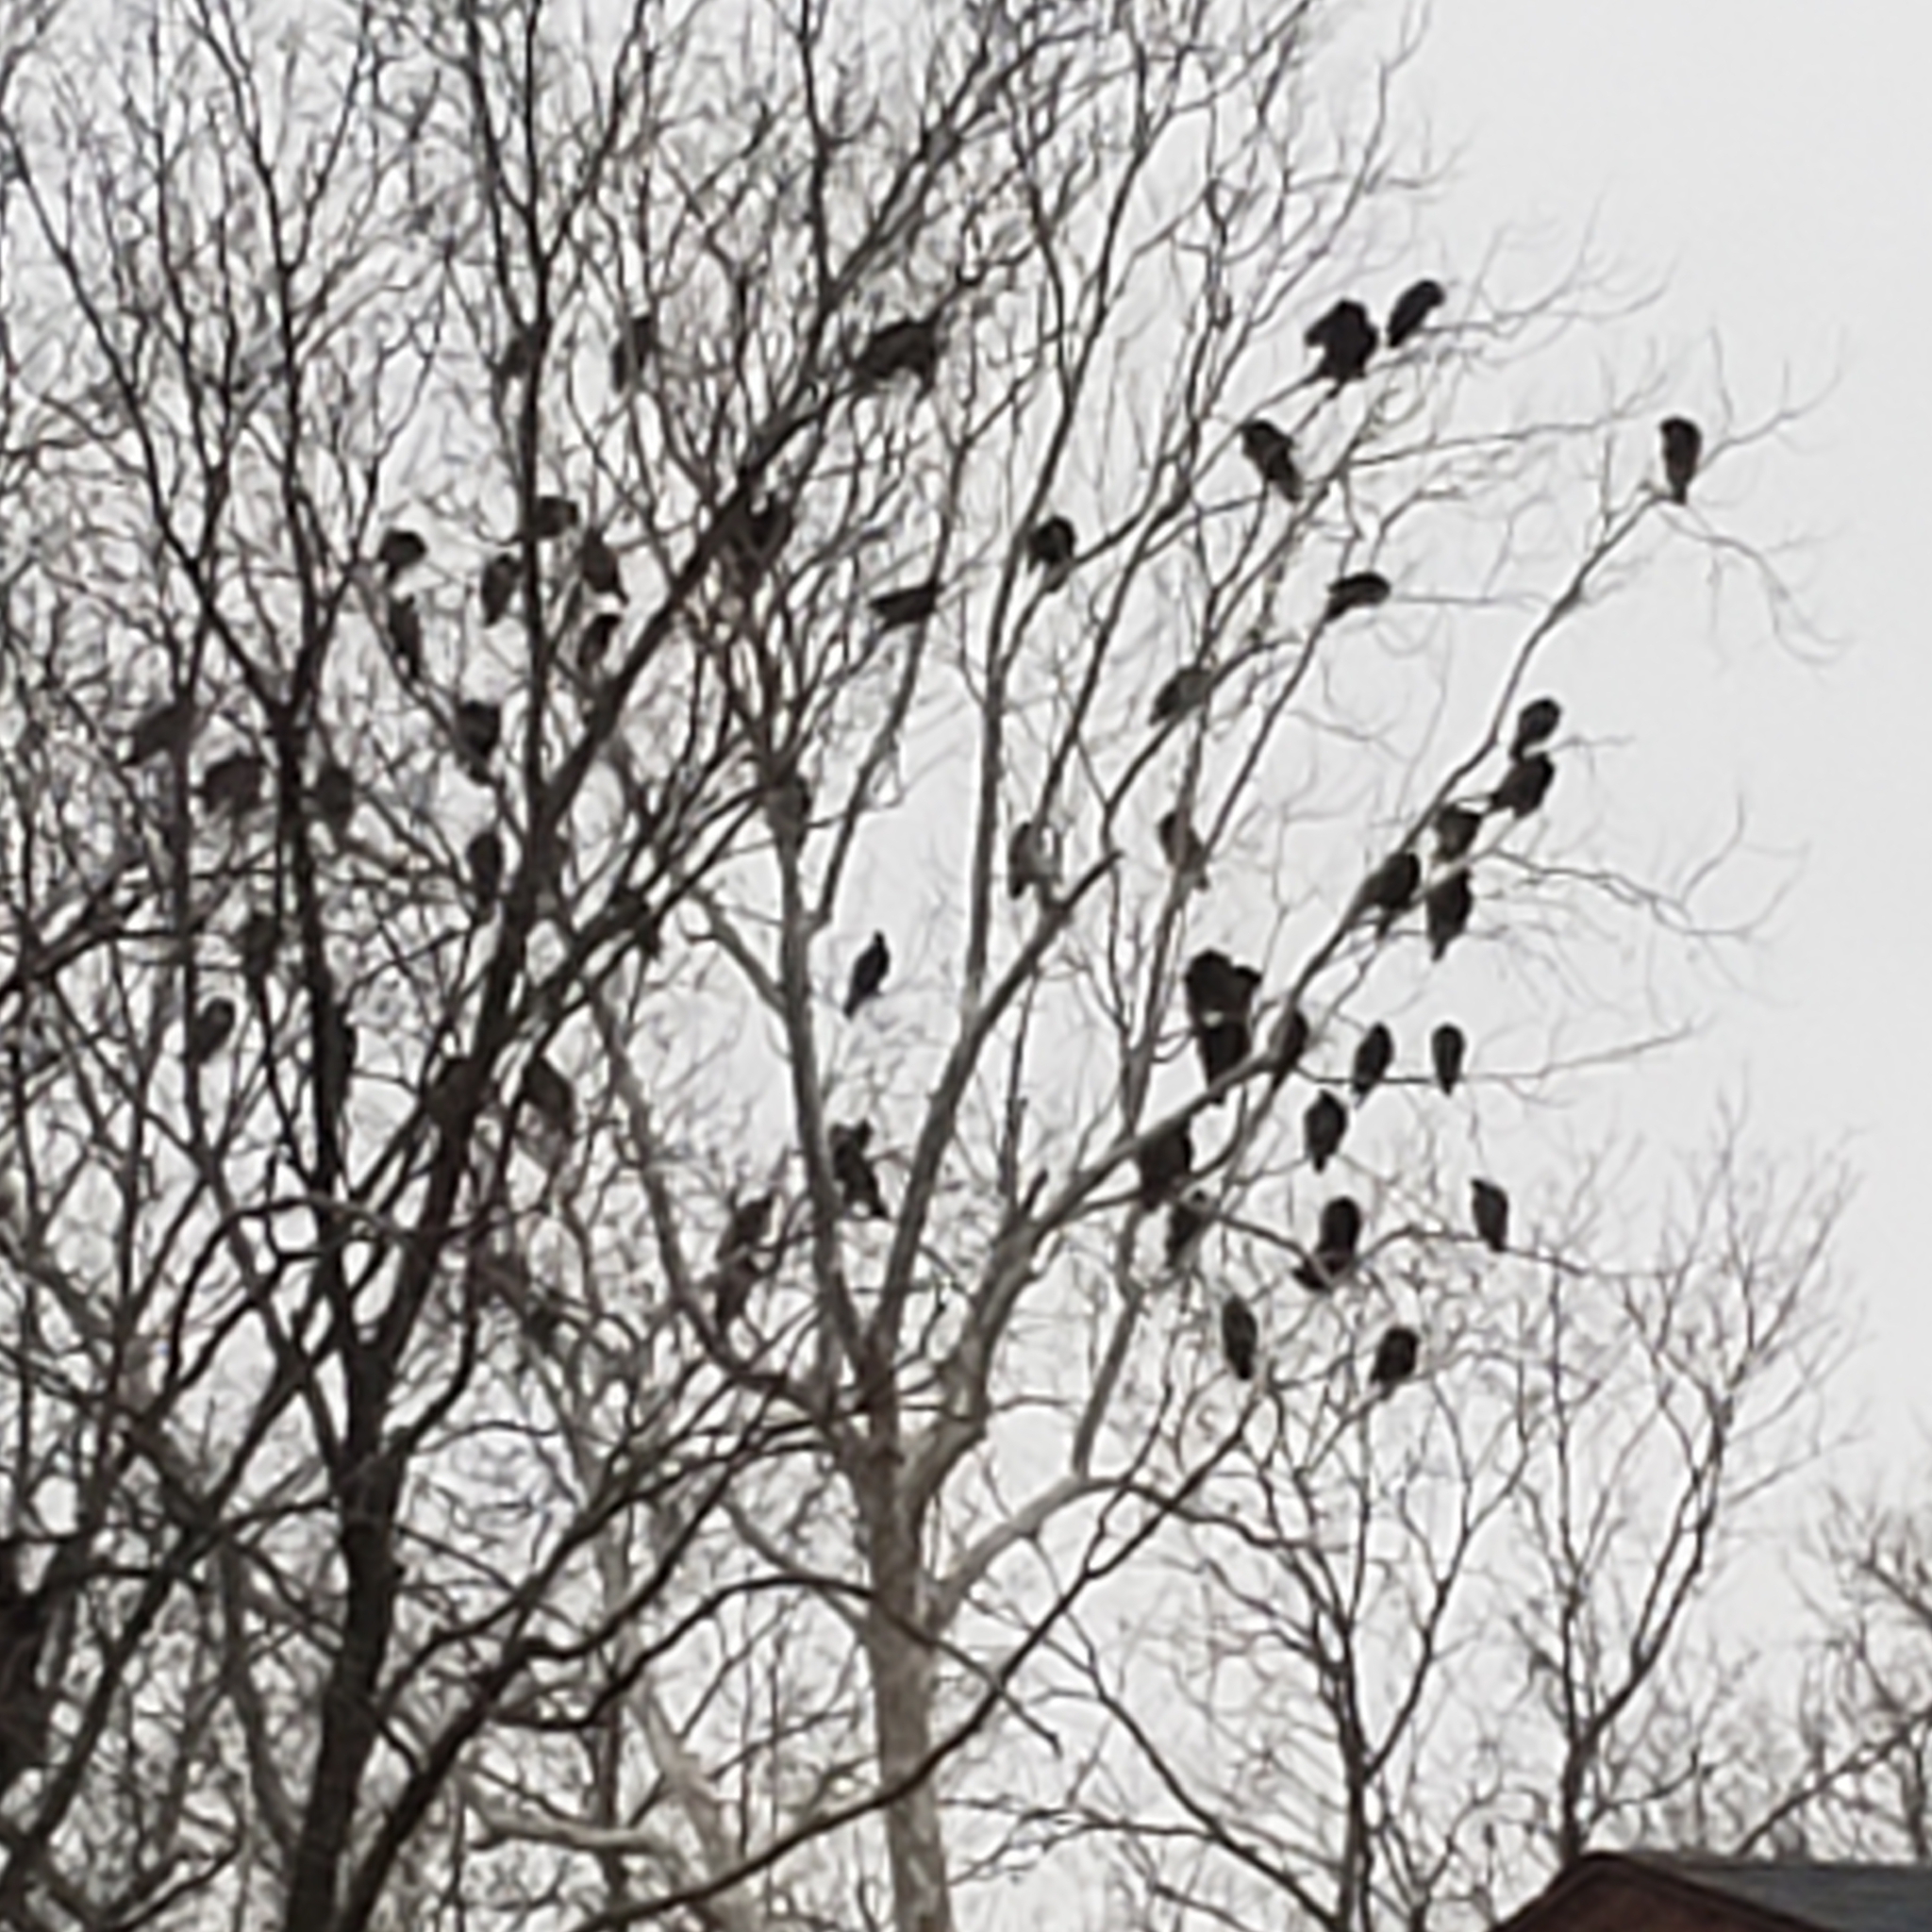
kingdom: Animalia
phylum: Chordata
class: Aves
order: Accipitriformes
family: Cathartidae
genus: Cathartes
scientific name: Cathartes aura
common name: Turkey vulture
